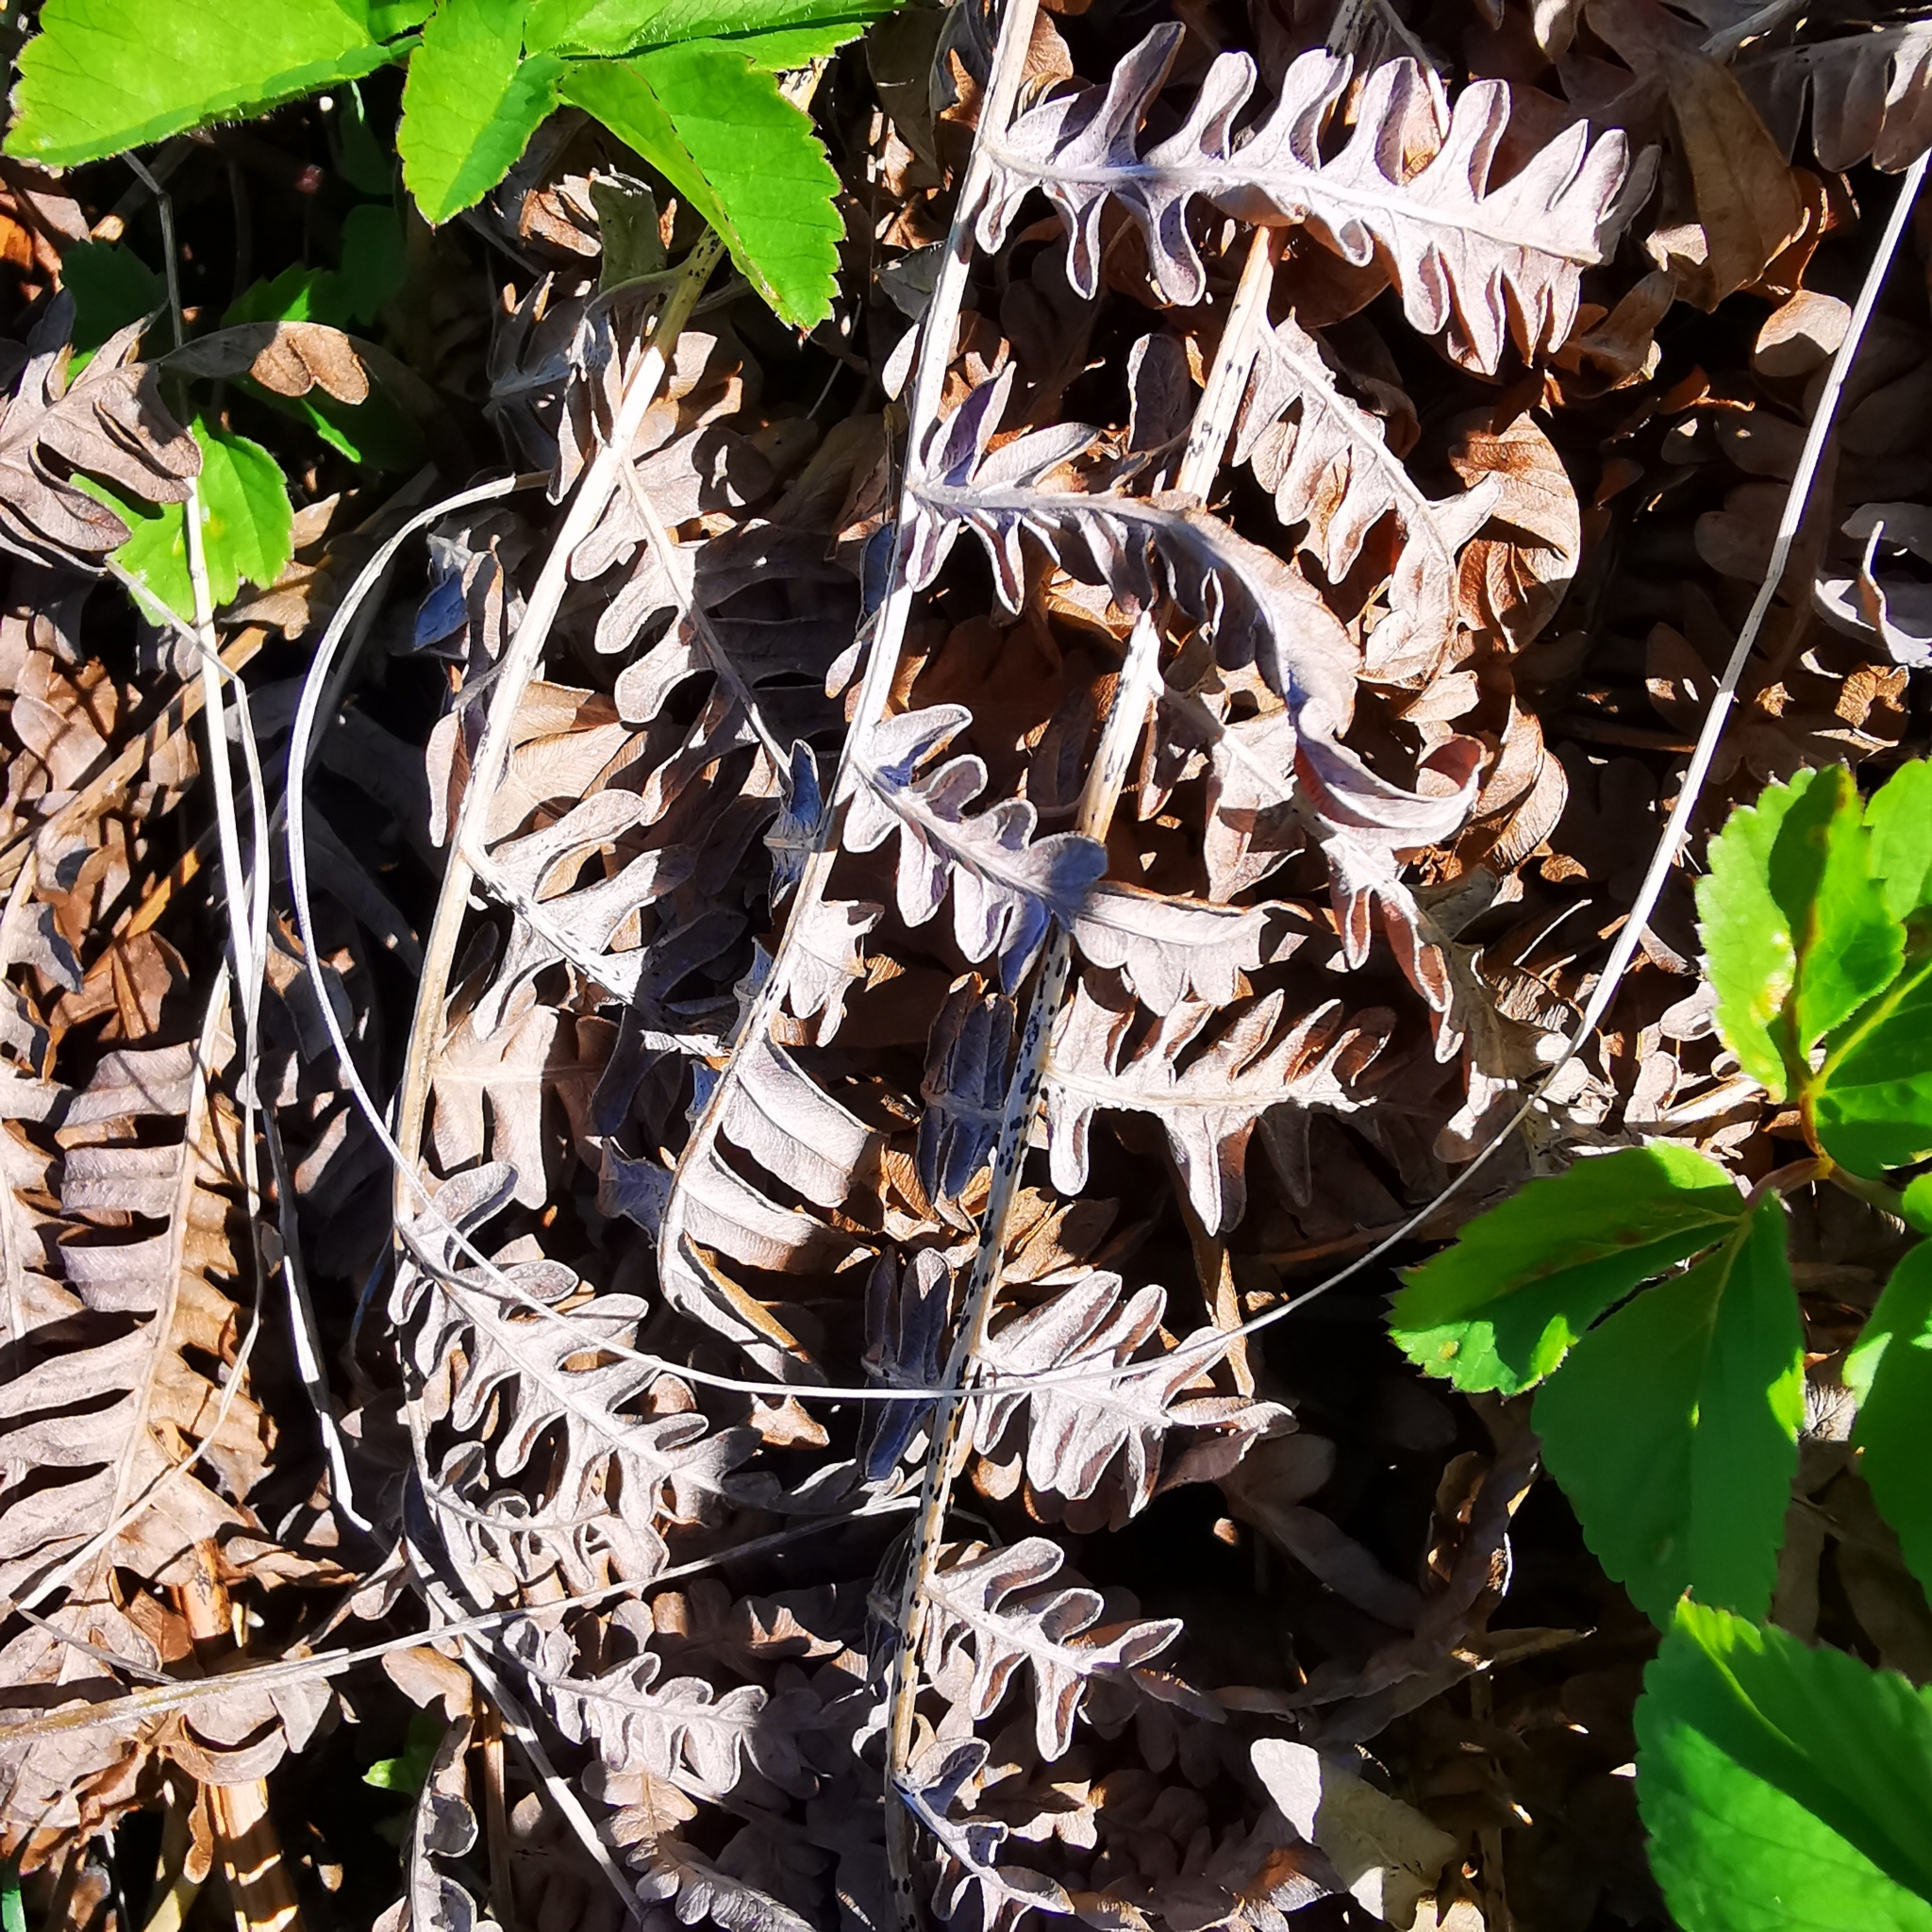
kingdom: Plantae
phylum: Tracheophyta
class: Polypodiopsida
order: Polypodiales
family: Dennstaedtiaceae
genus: Pteridium
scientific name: Pteridium aquilinum
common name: Bracken
